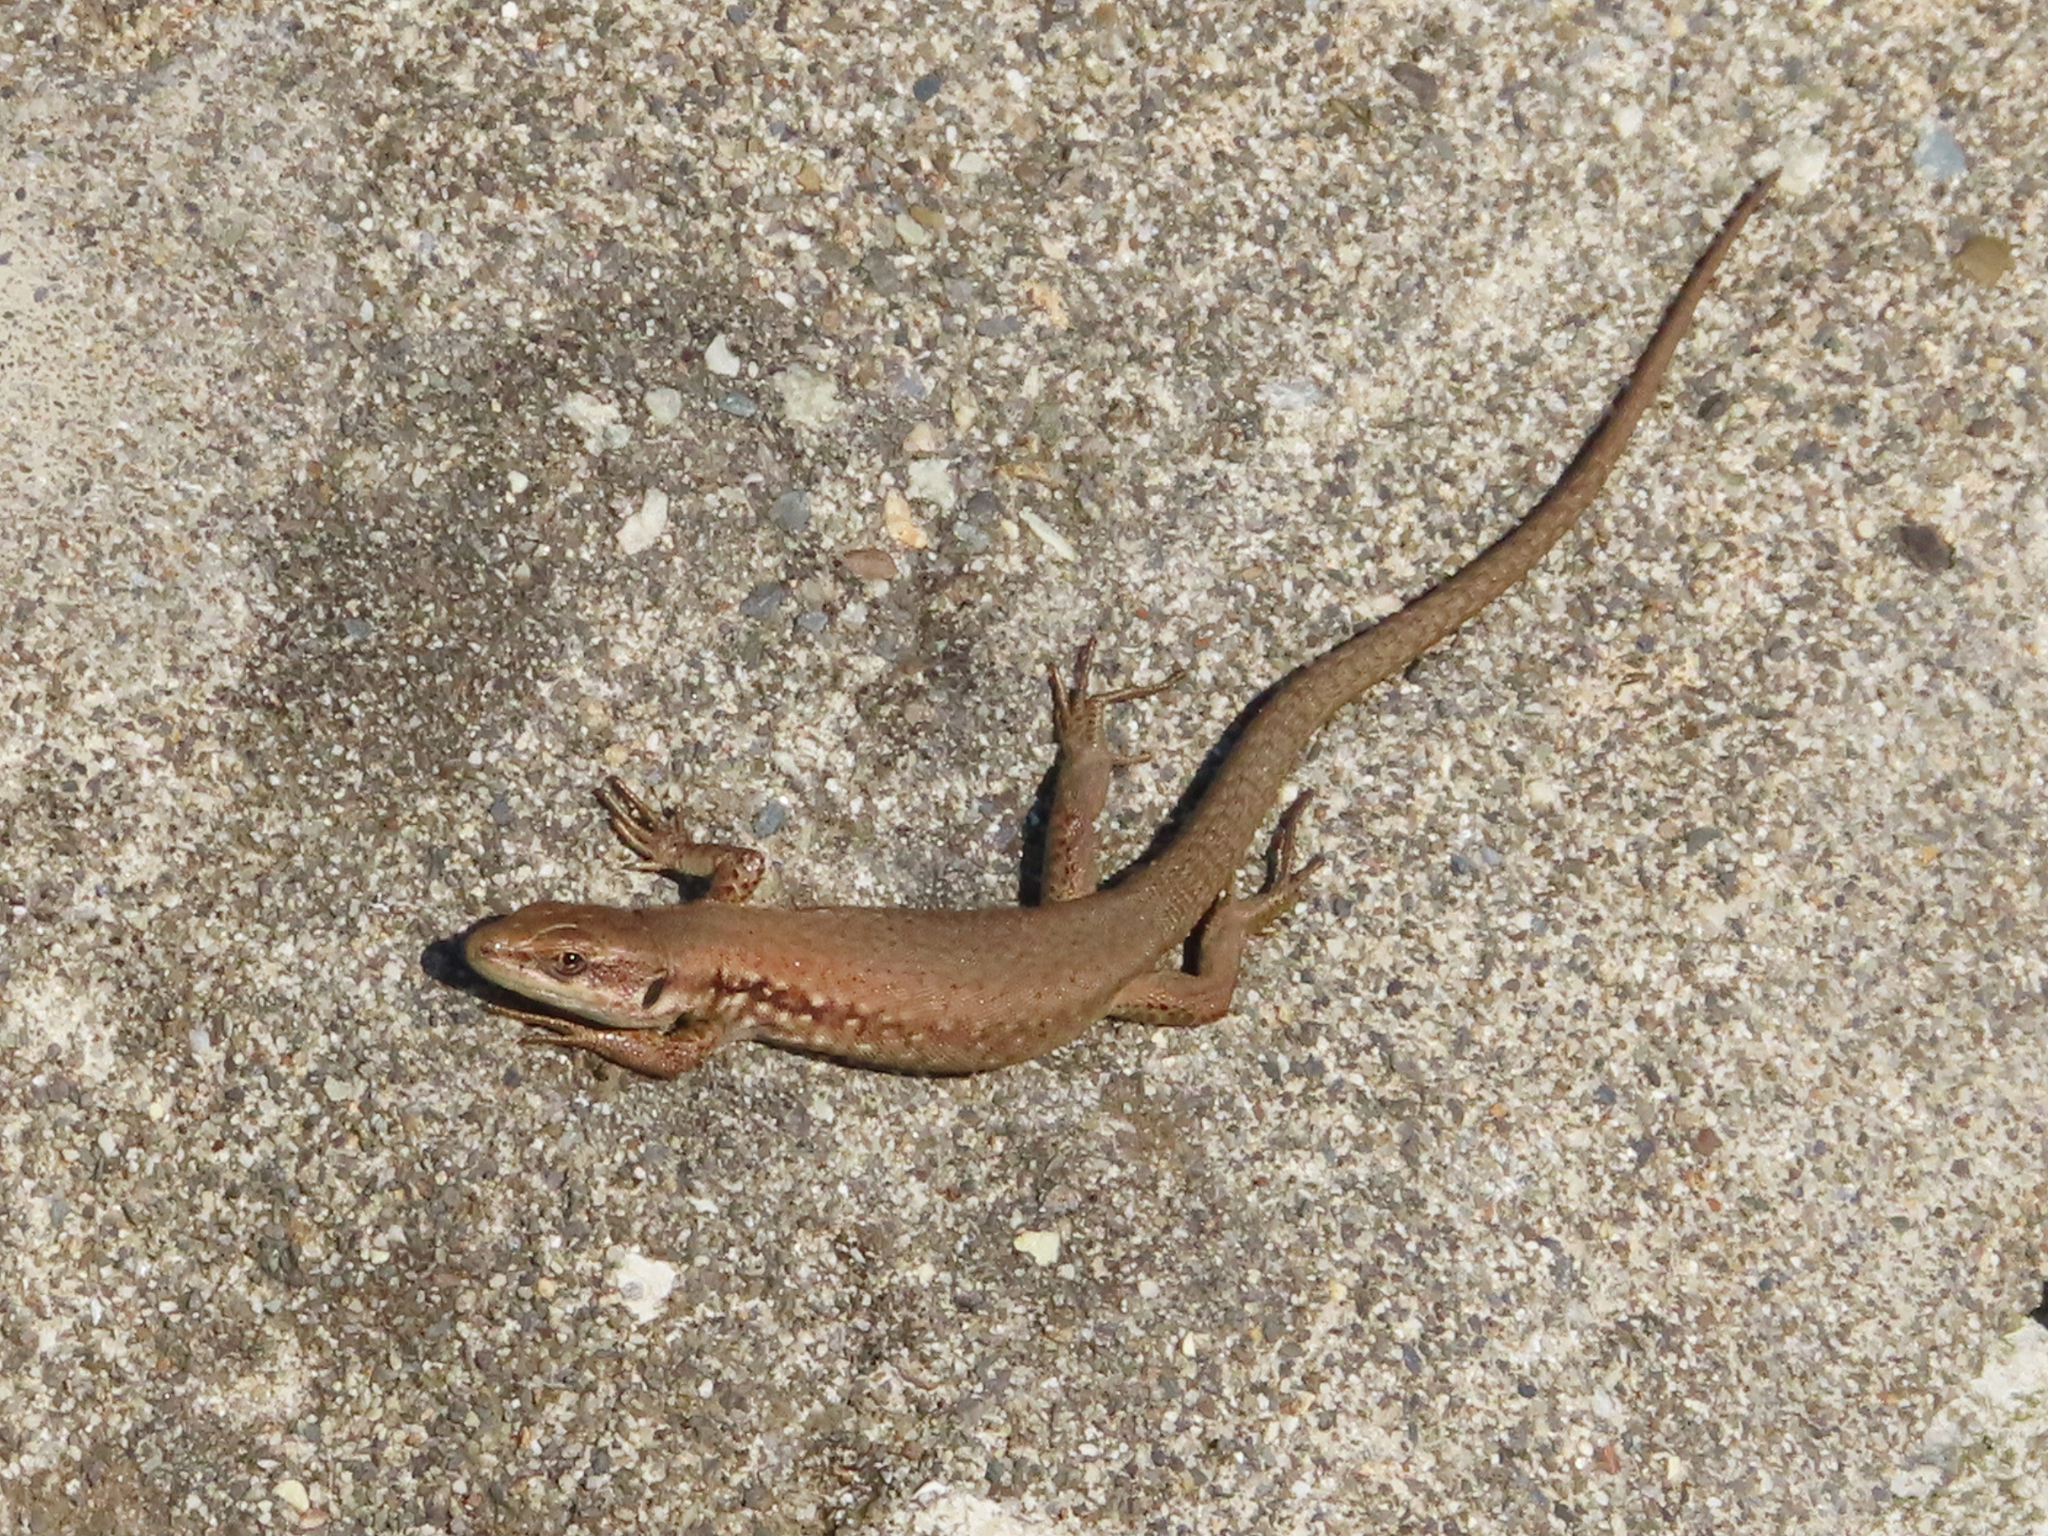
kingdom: Animalia
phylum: Chordata
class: Squamata
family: Lacertidae
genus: Phoenicolacerta
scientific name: Phoenicolacerta laevis
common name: Lebanon lizard
